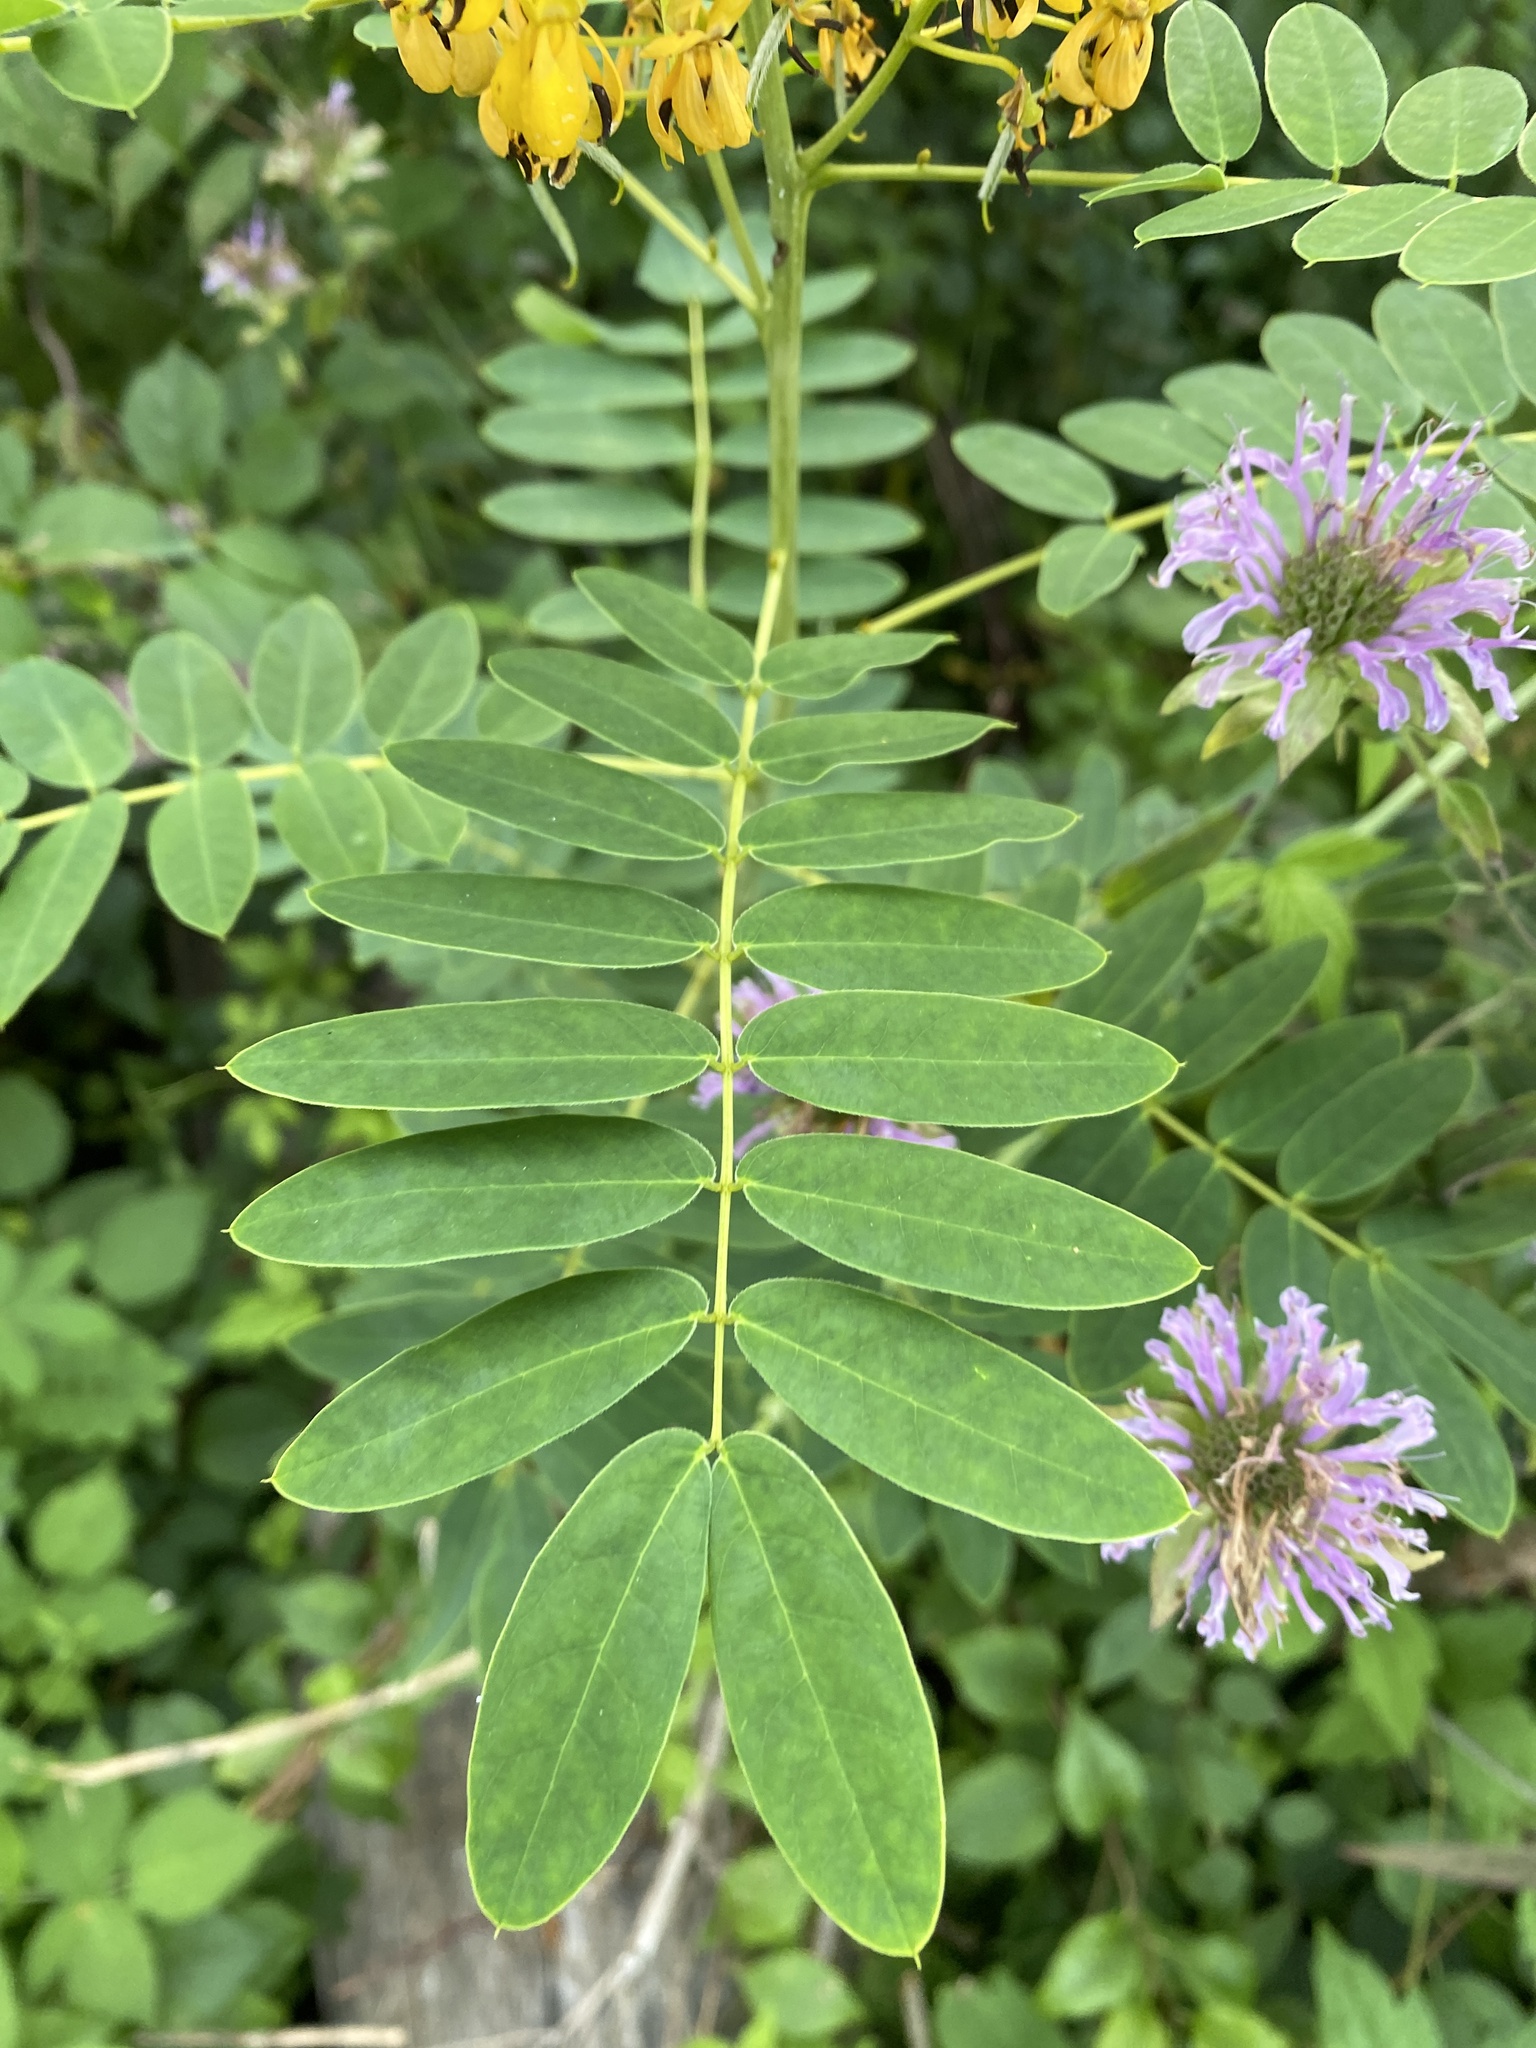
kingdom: Plantae
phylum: Tracheophyta
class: Magnoliopsida
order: Fabales
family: Fabaceae
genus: Senna
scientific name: Senna hebecarpa
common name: Wild senna
